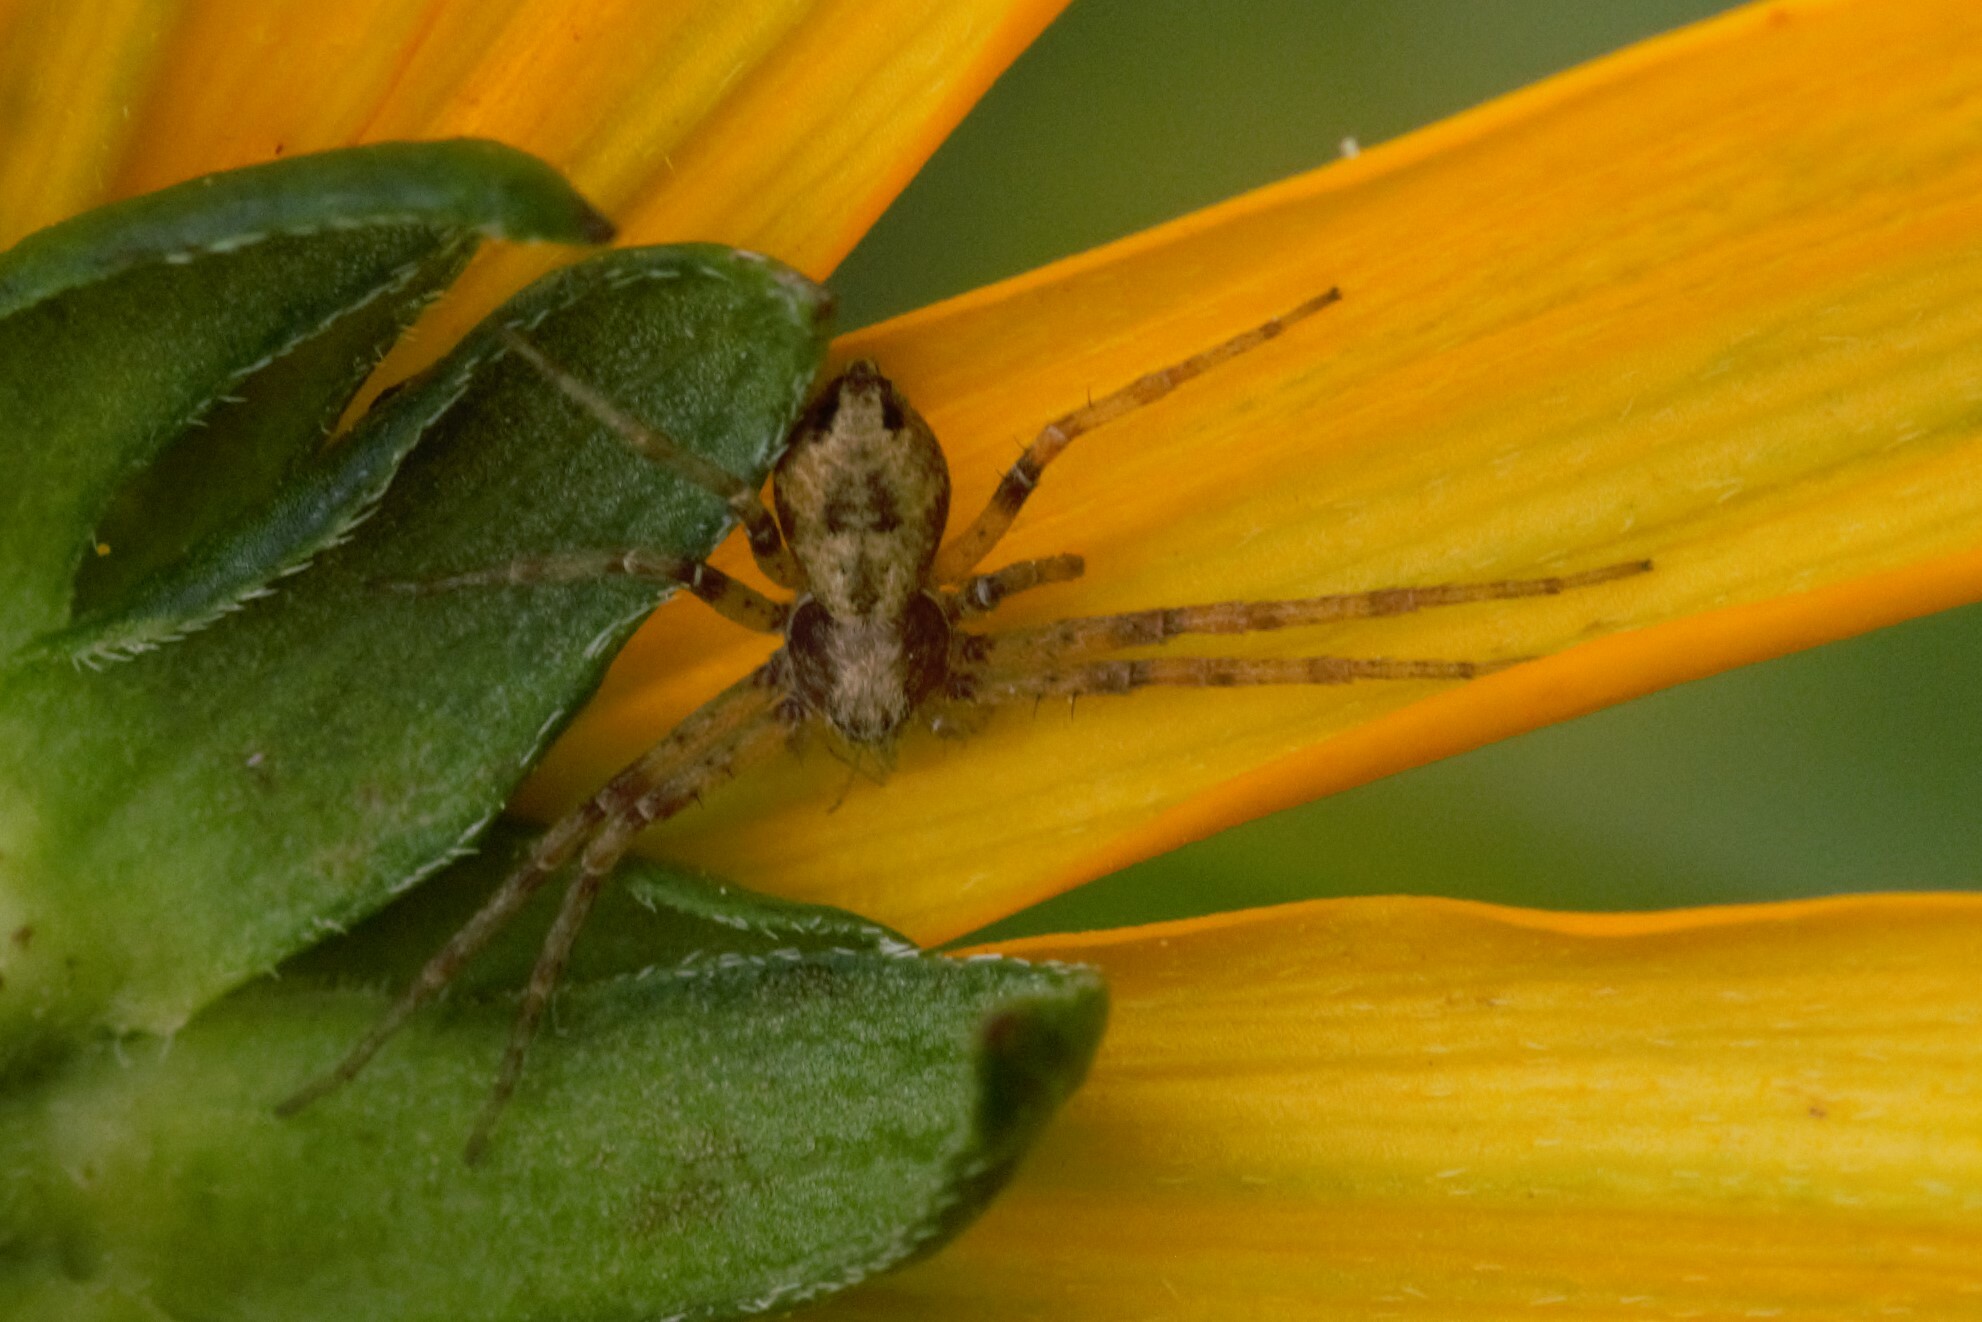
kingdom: Animalia
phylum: Arthropoda
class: Arachnida
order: Araneae
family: Philodromidae
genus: Philodromus
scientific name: Philodromus
